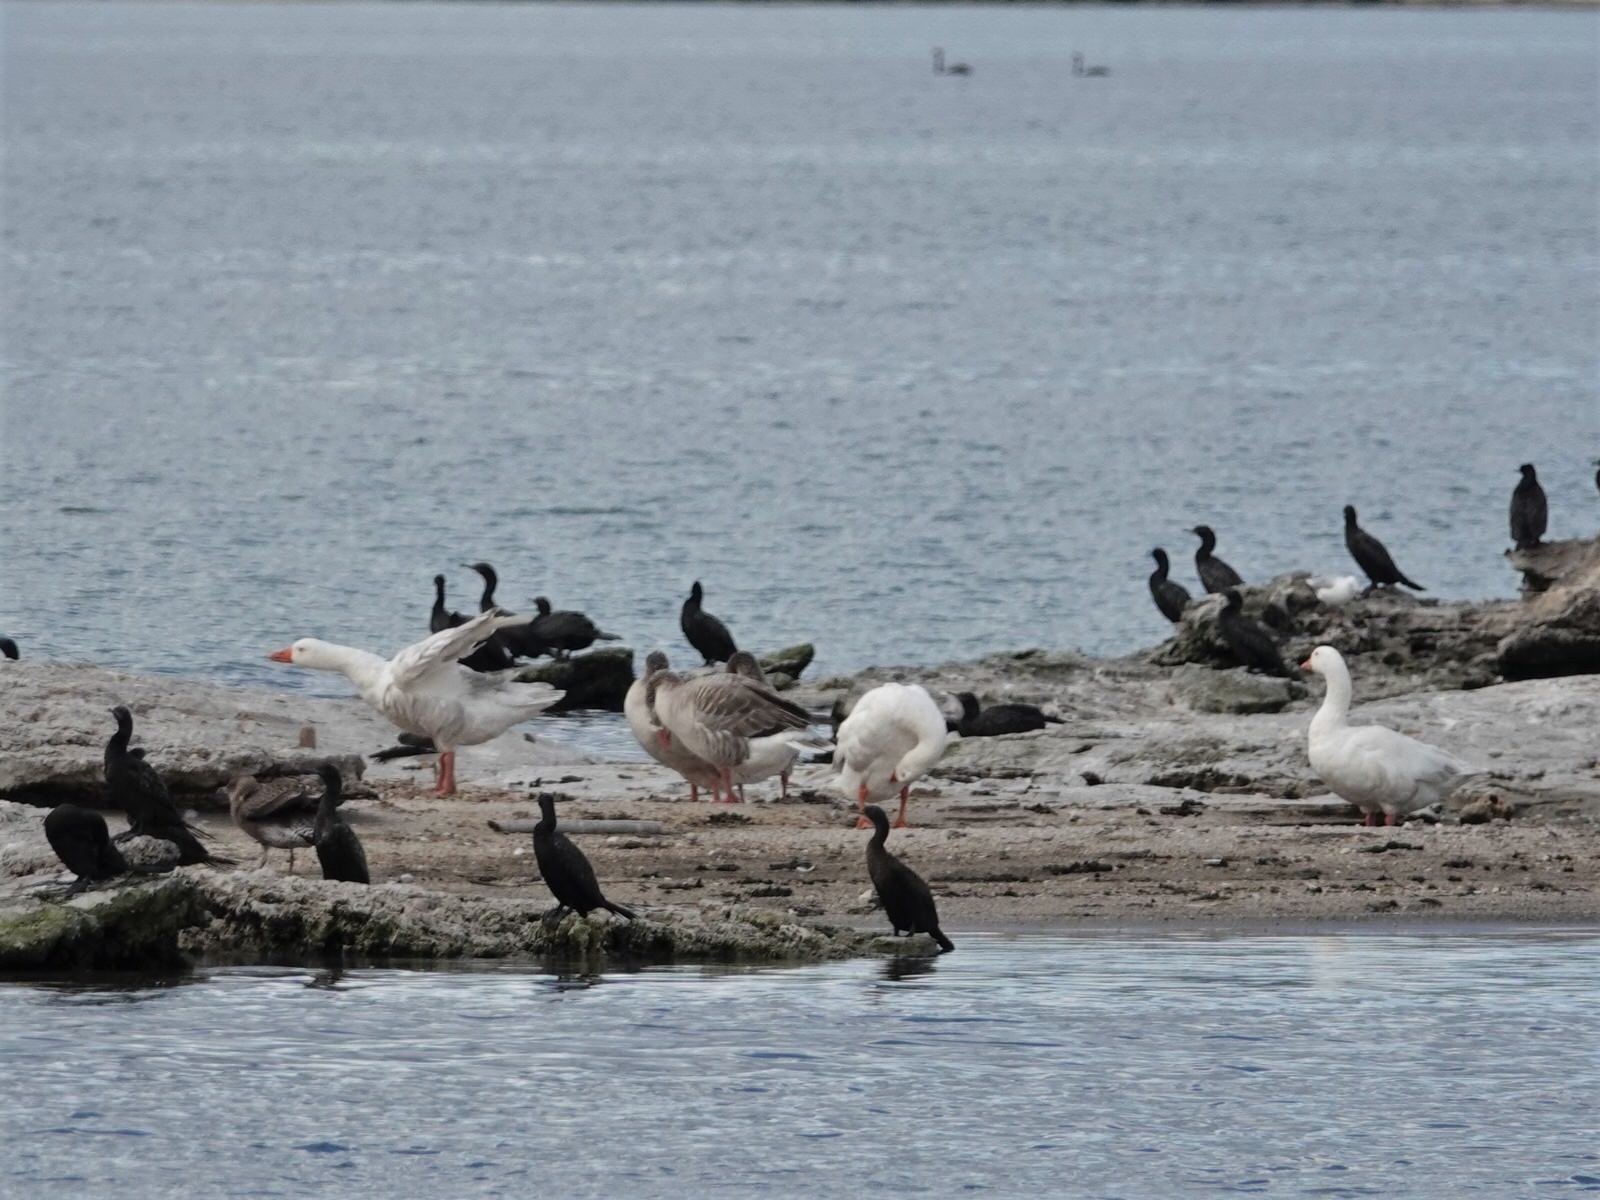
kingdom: Animalia
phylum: Chordata
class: Aves
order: Anseriformes
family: Anatidae
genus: Anser
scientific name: Anser anser
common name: Greylag goose
